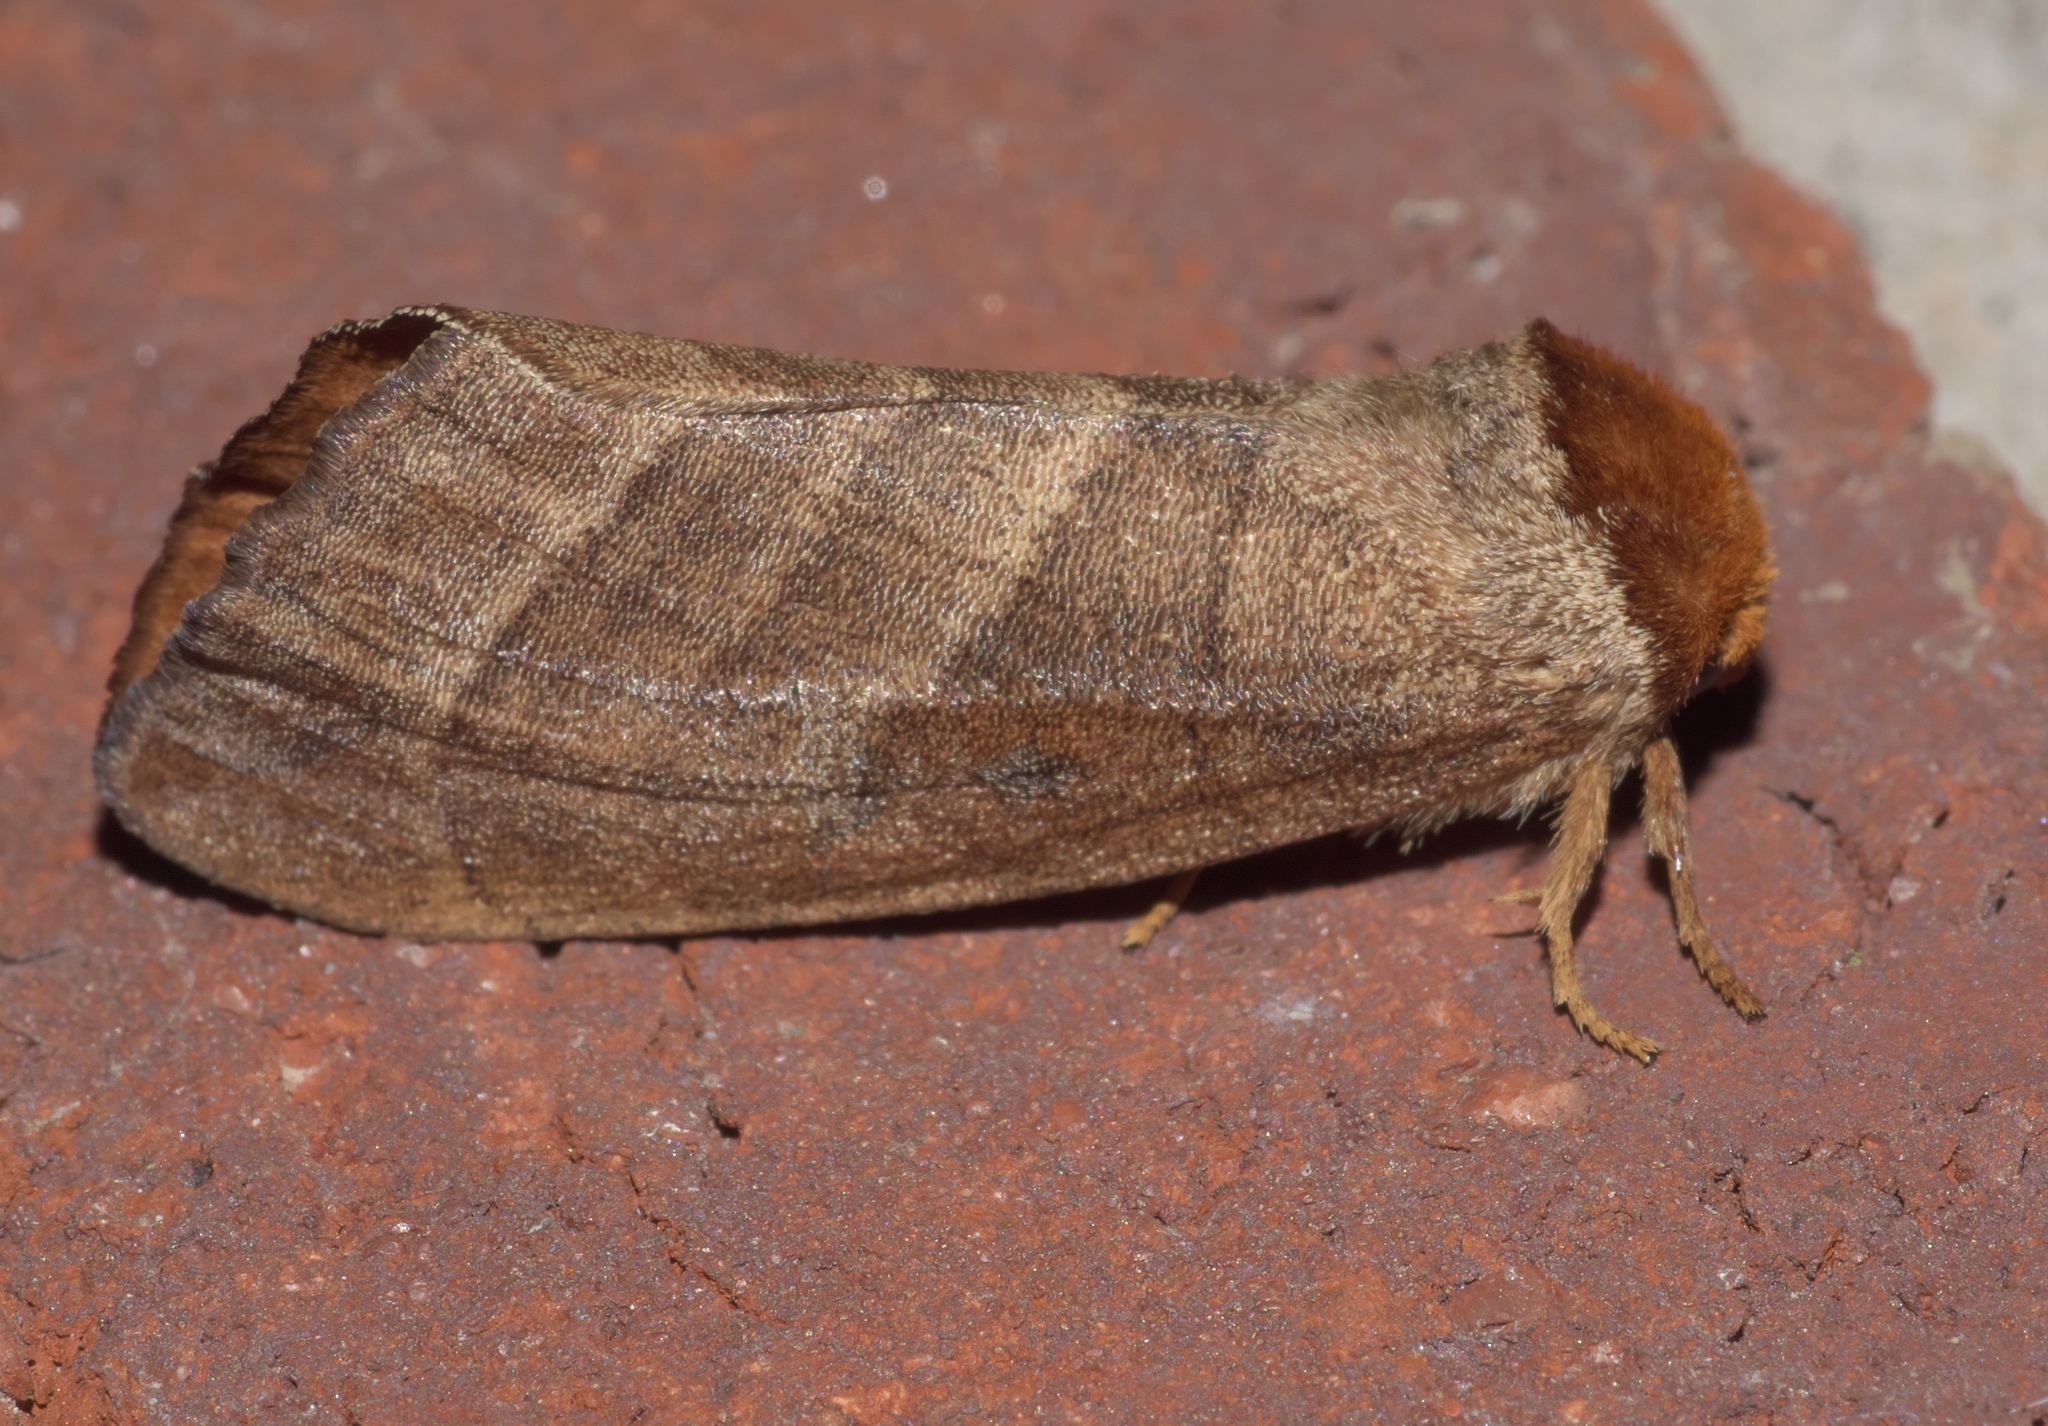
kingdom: Animalia
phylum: Arthropoda
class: Insecta
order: Lepidoptera
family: Notodontidae
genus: Datana
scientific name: Datana integerrima
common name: Walnut caterpillar
